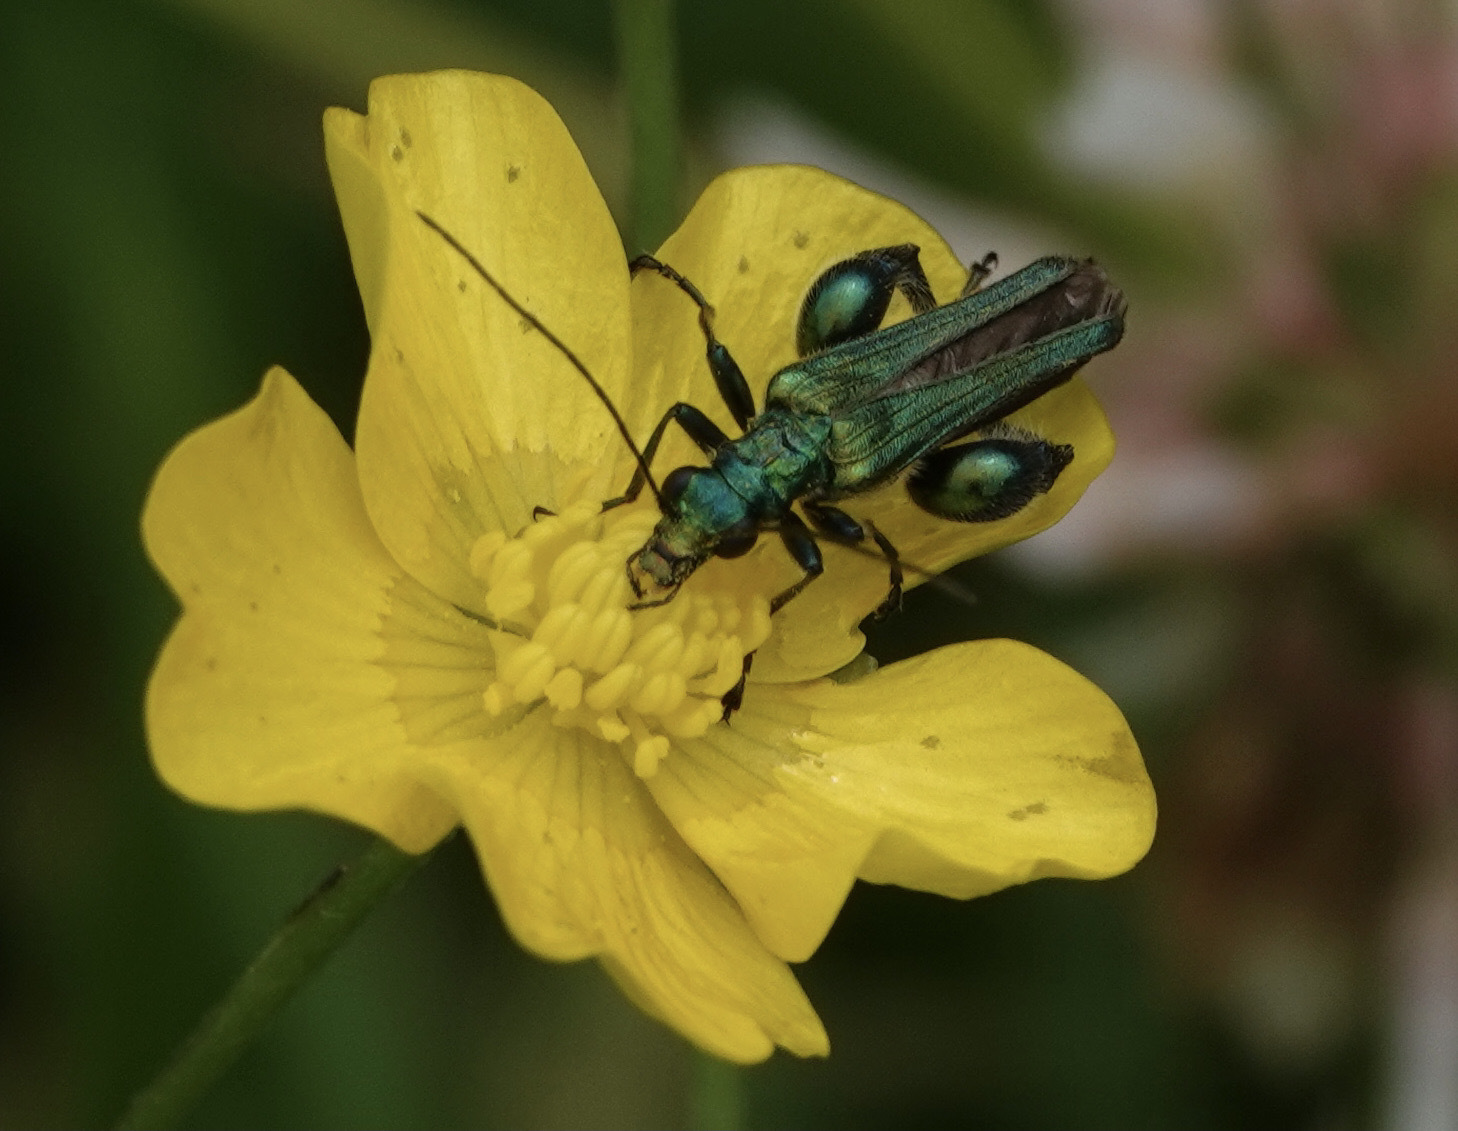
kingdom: Animalia
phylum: Arthropoda
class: Insecta
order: Coleoptera
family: Oedemeridae
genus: Oedemera
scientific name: Oedemera nobilis
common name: Swollen-thighed beetle
